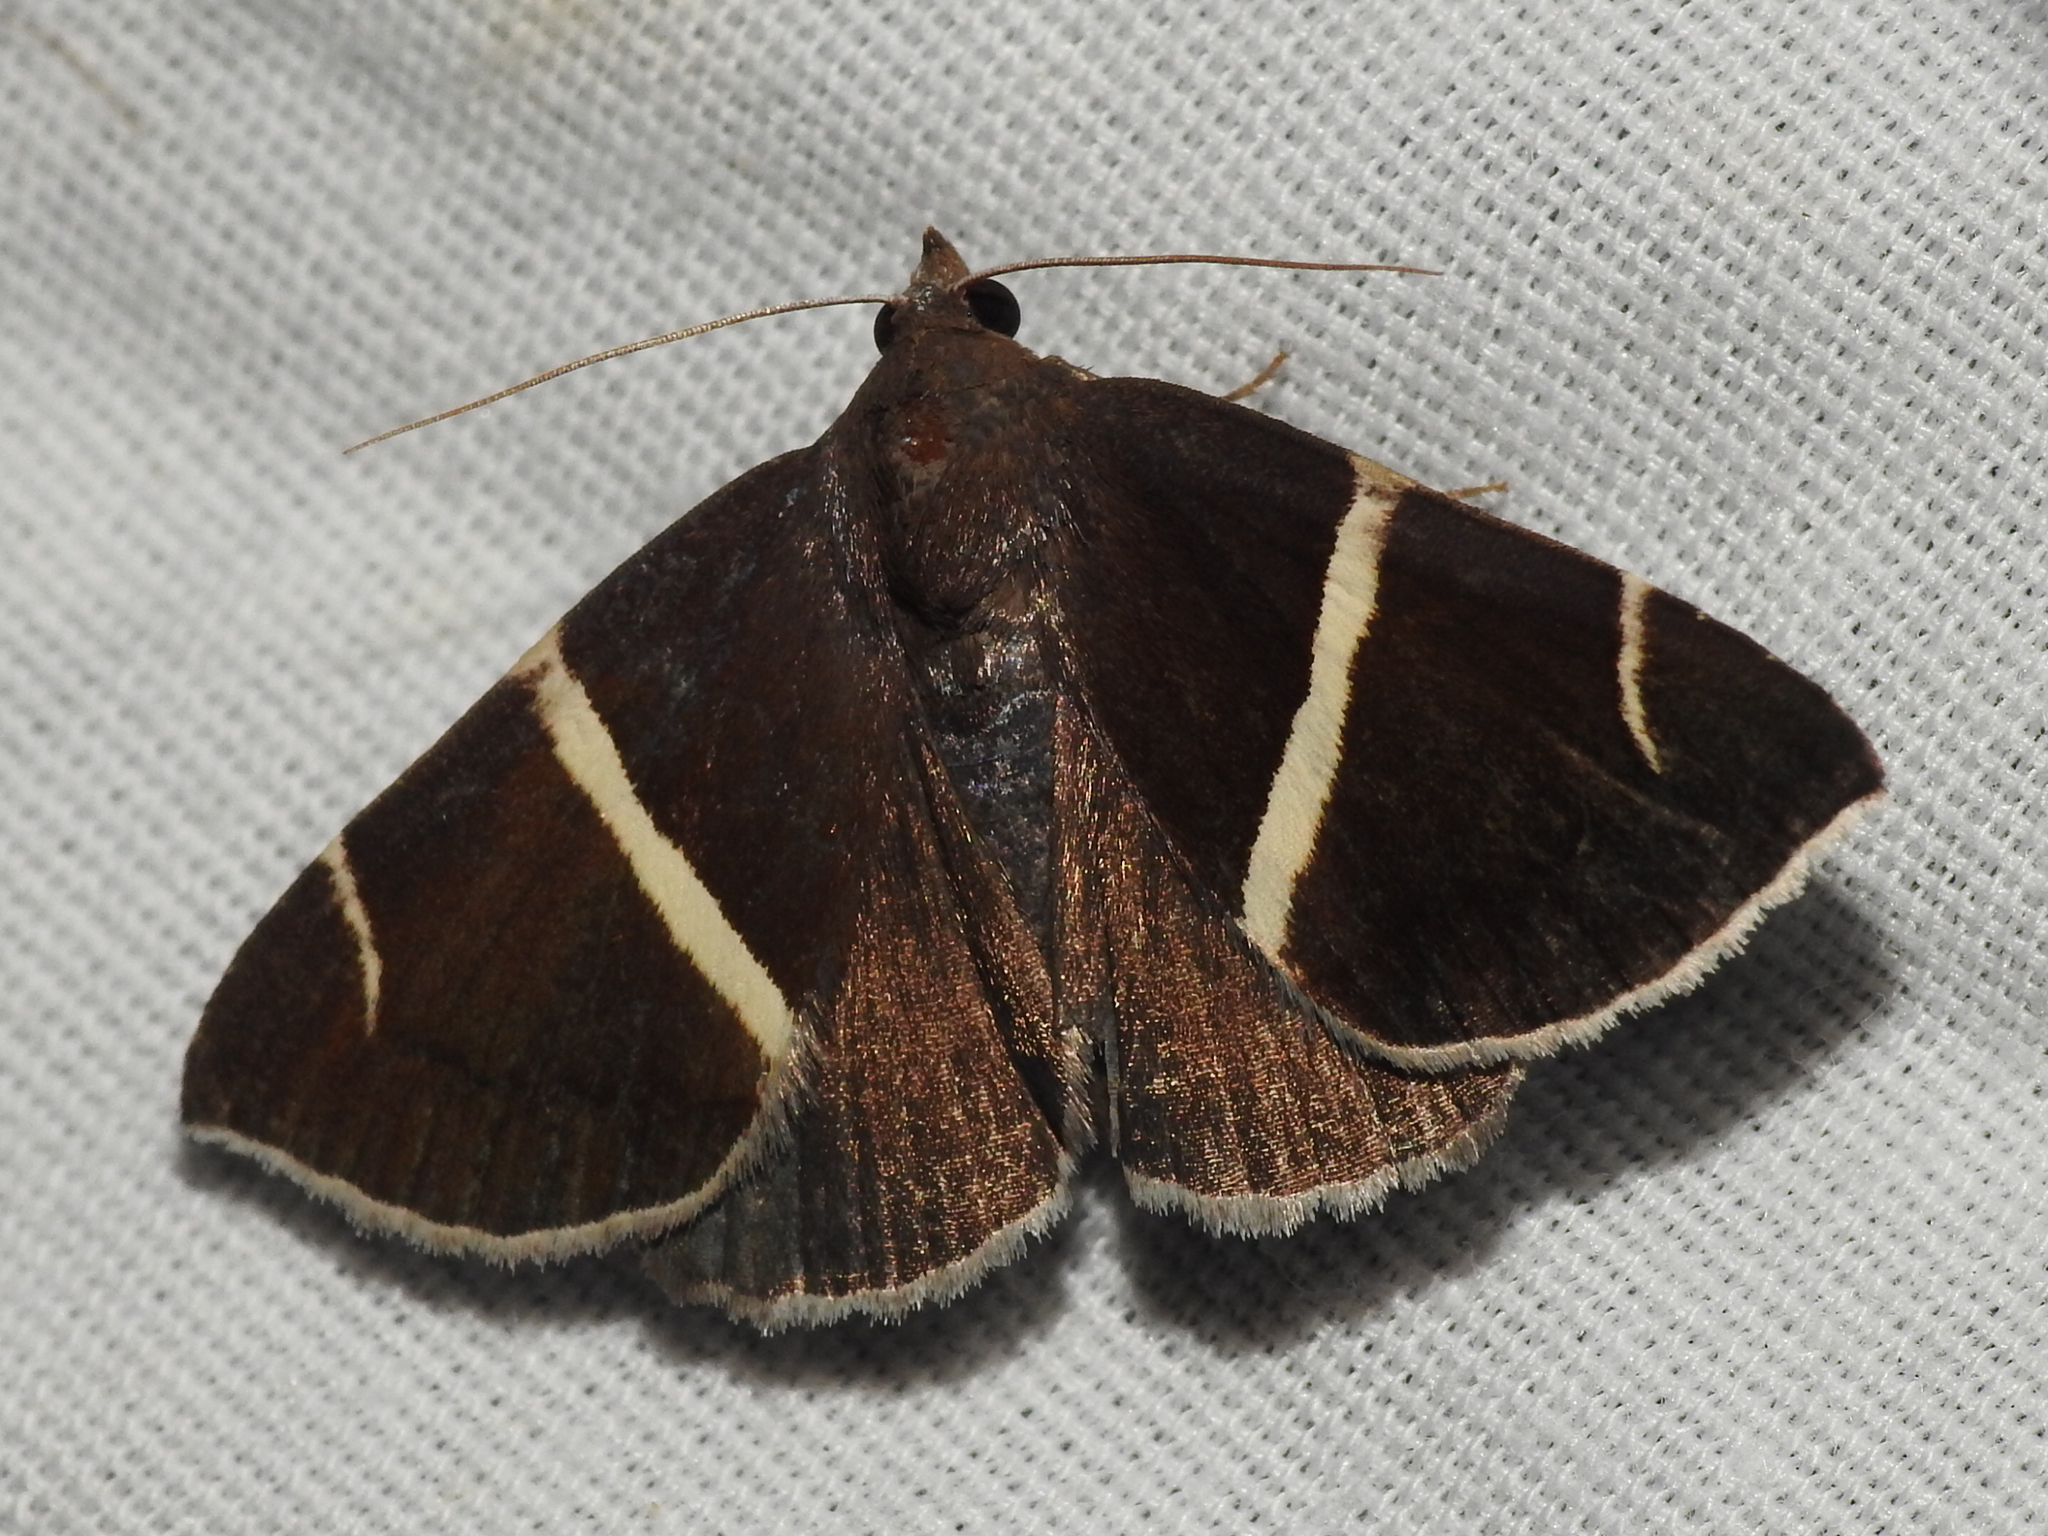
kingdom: Animalia
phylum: Arthropoda
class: Insecta
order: Lepidoptera
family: Erebidae
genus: Argyrostrotis
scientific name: Argyrostrotis anilis
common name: Short-lined chocolate
